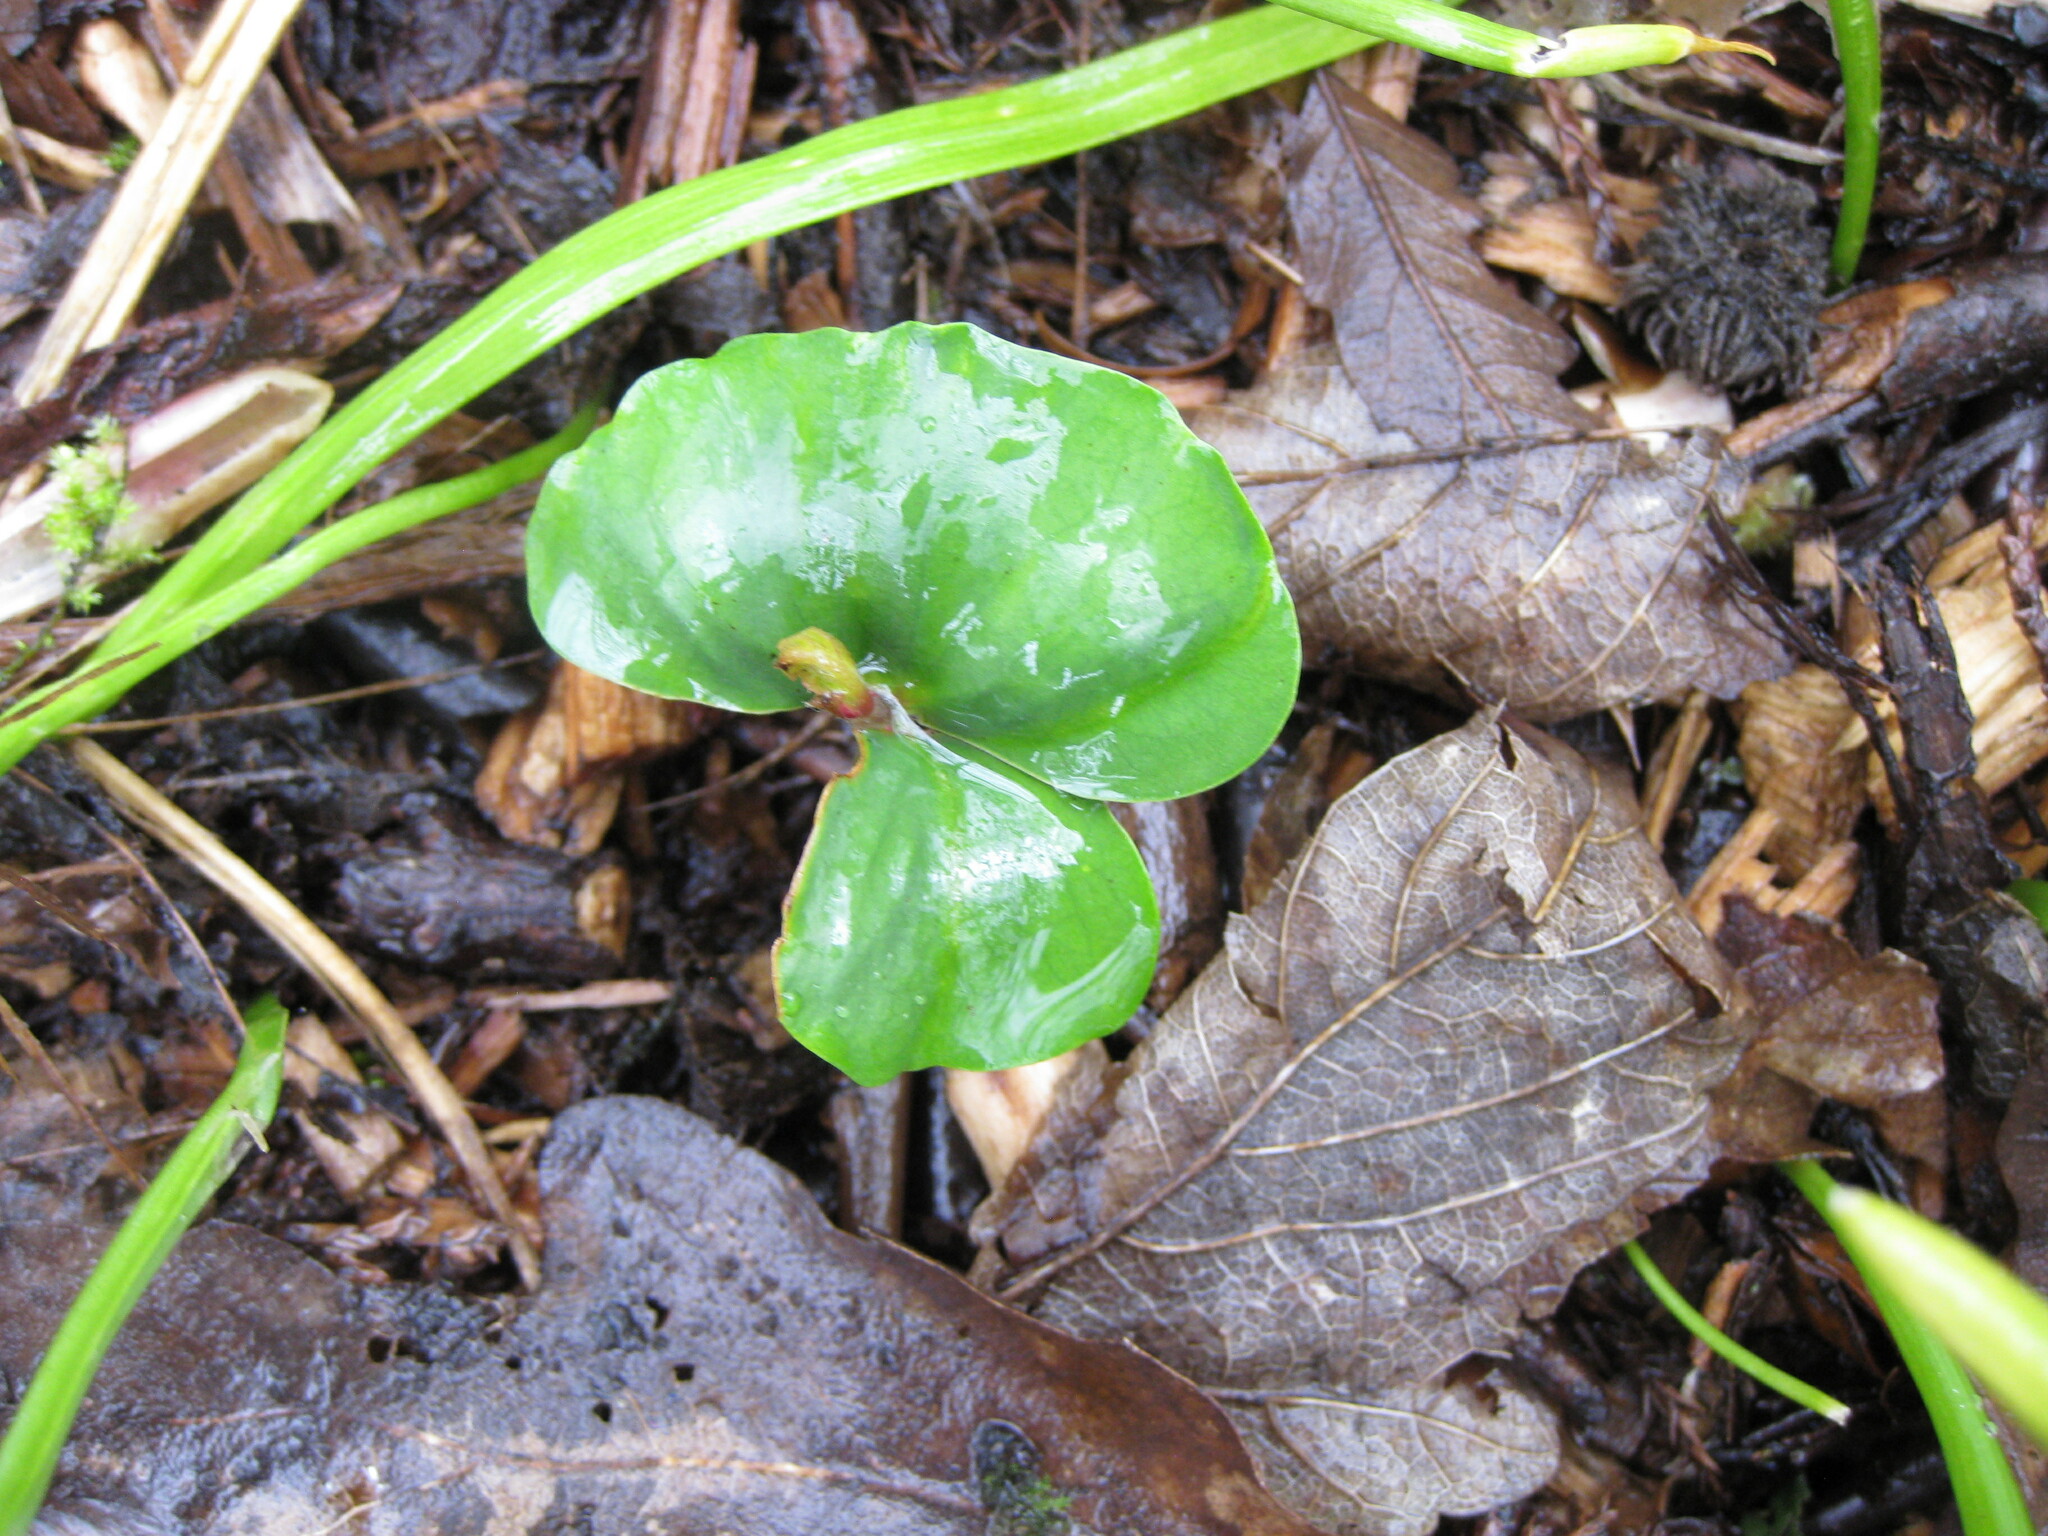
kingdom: Plantae
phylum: Tracheophyta
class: Magnoliopsida
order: Fagales
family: Fagaceae
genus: Fagus
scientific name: Fagus sylvatica
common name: Beech
